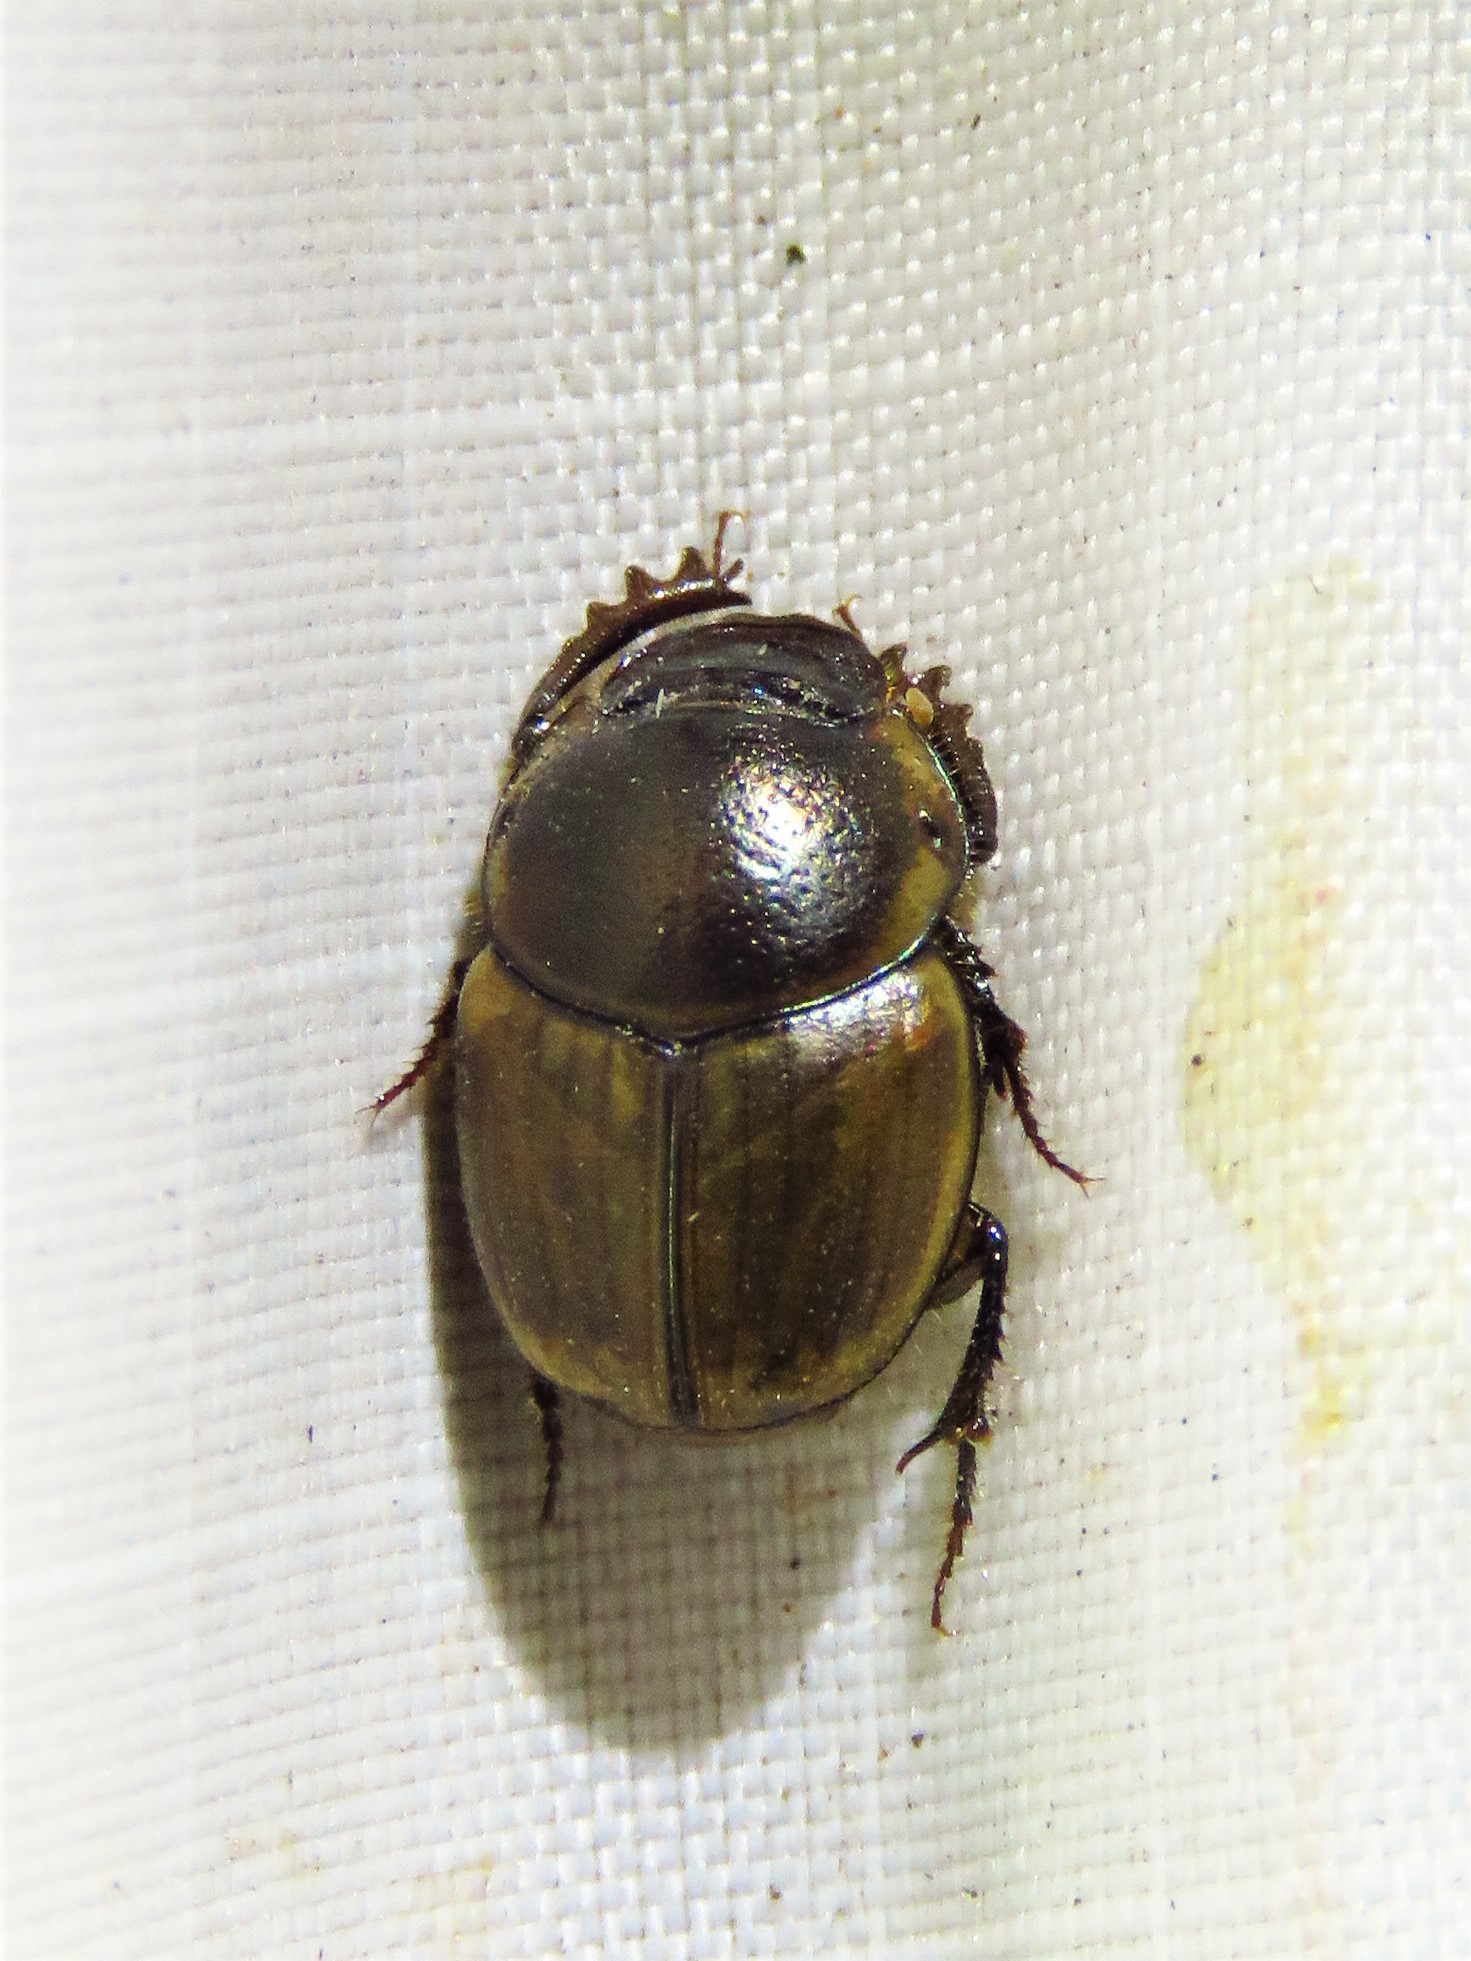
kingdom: Animalia
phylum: Arthropoda
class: Insecta
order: Coleoptera
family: Scarabaeidae
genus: Digitonthophagus
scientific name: Digitonthophagus gazella
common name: Brown dung beetle
